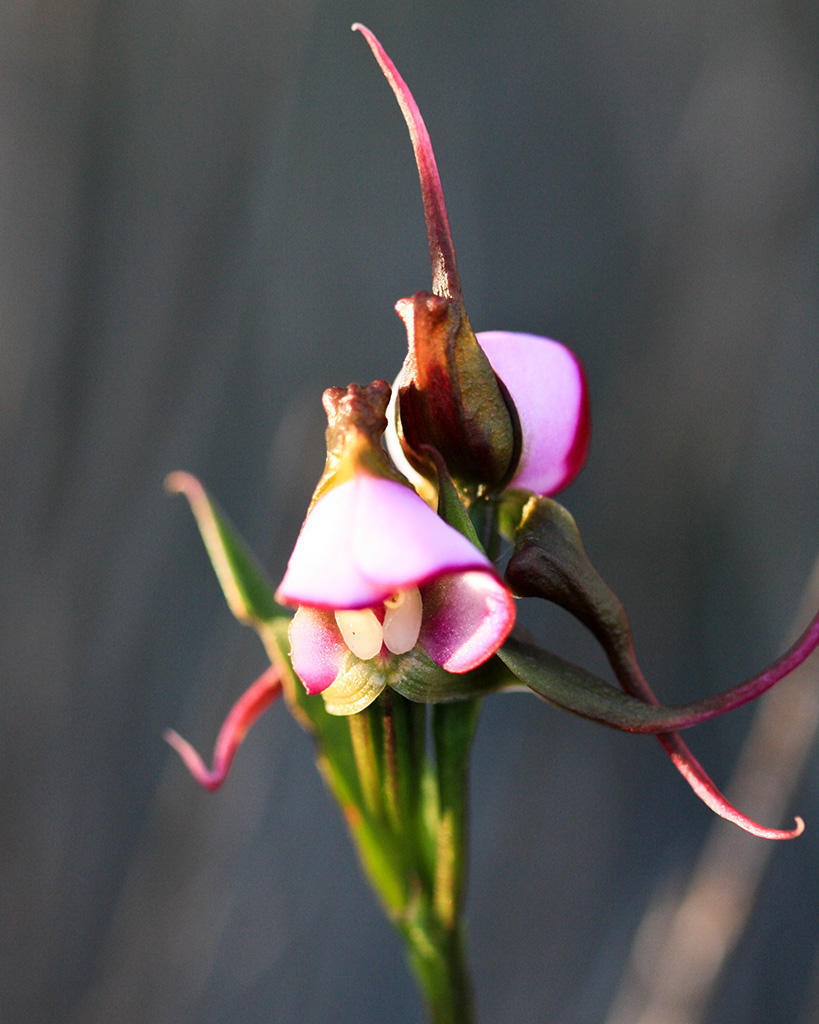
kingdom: Plantae
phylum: Tracheophyta
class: Liliopsida
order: Asparagales
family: Orchidaceae
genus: Disperis
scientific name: Disperis capensis
